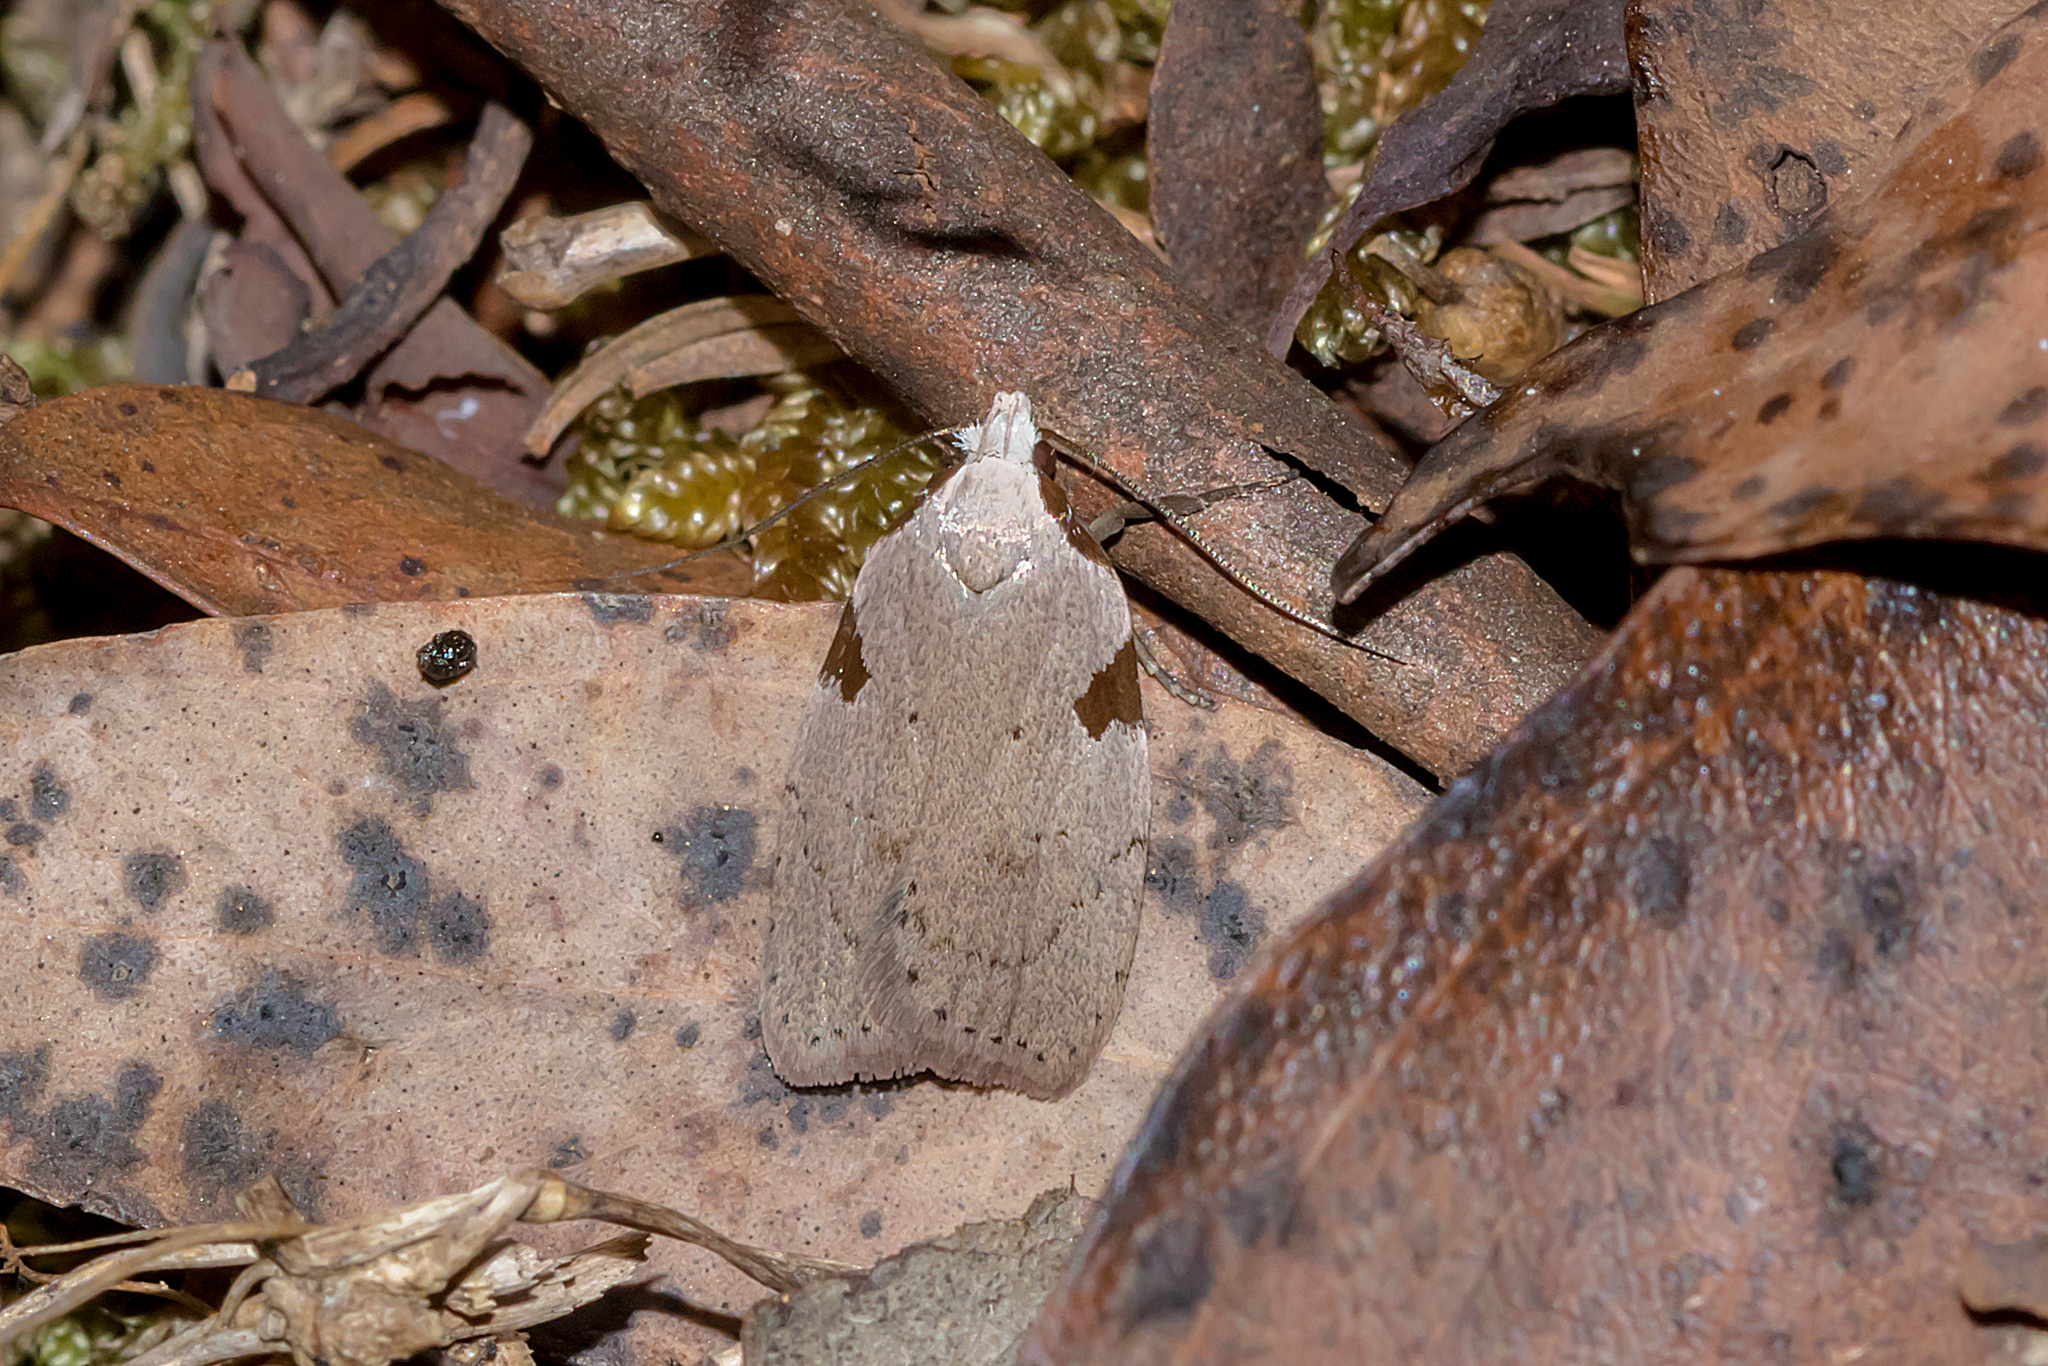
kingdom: Animalia
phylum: Arthropoda
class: Insecta
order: Lepidoptera
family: Oecophoridae
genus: Zonopetala
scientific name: Zonopetala quadripustulella
